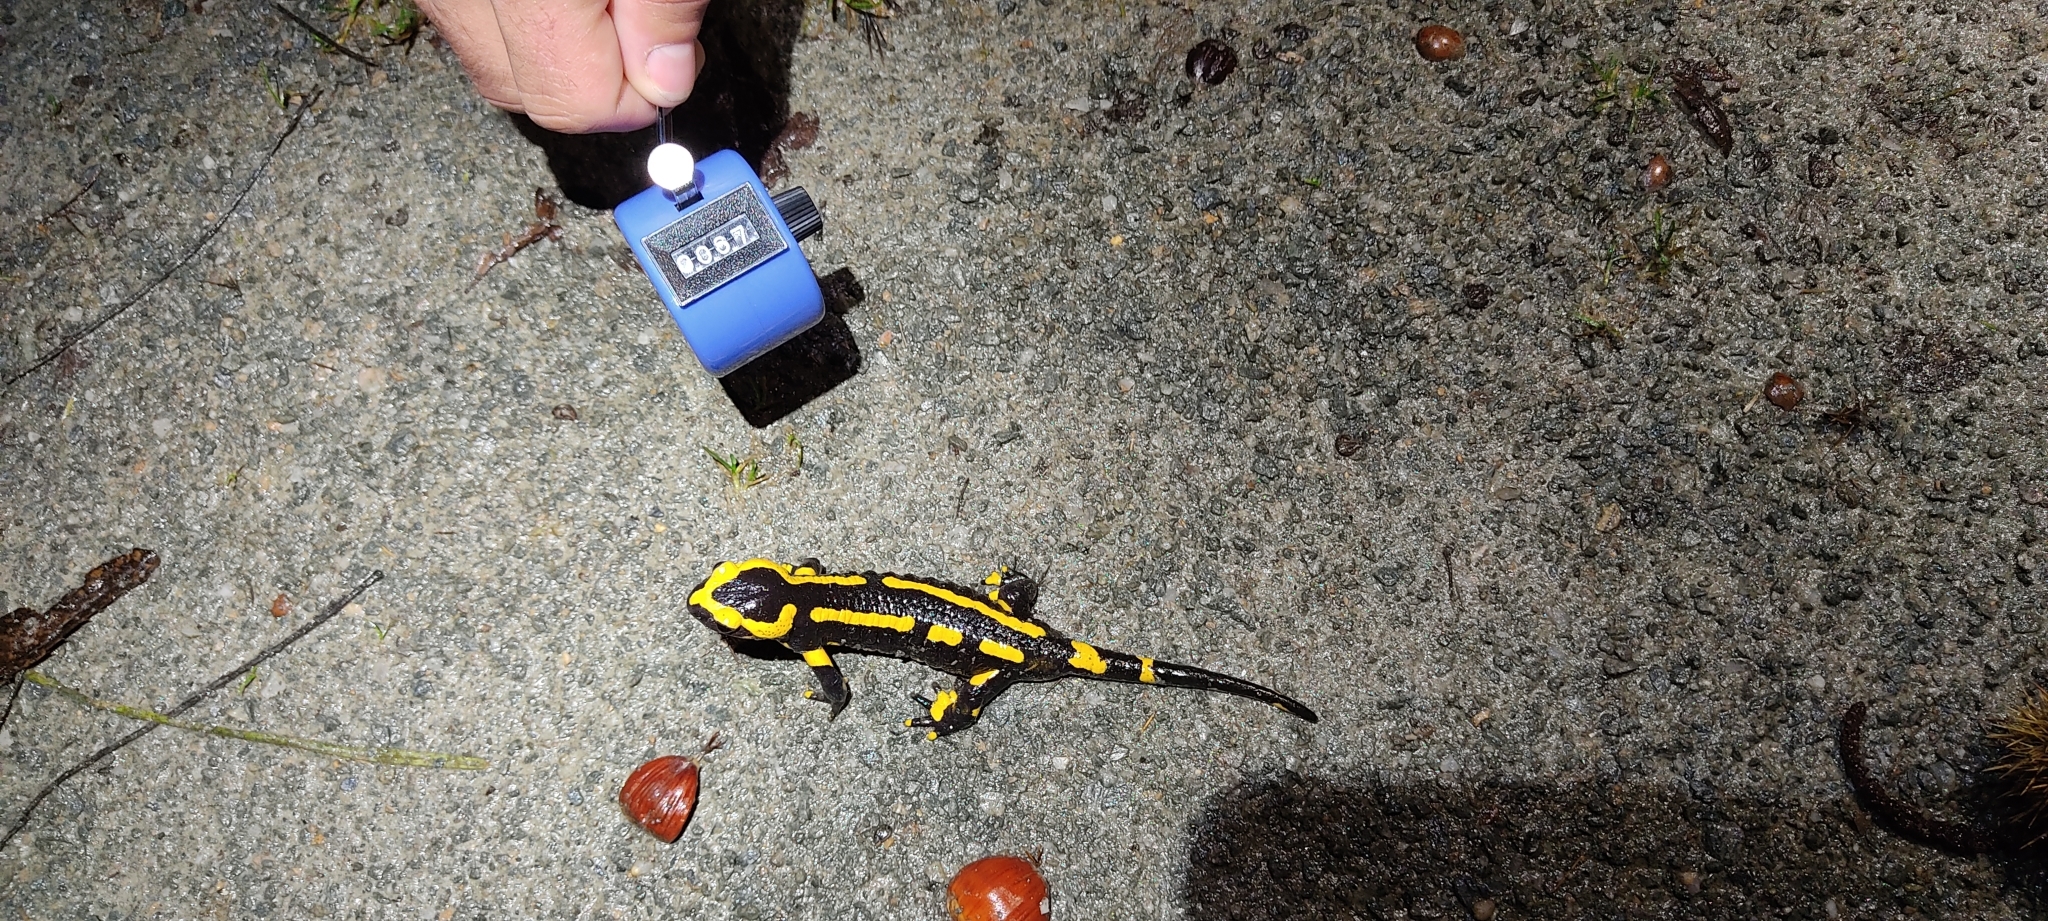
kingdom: Animalia
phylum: Chordata
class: Amphibia
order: Caudata
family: Salamandridae
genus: Salamandra
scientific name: Salamandra salamandra
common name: Fire salamander
